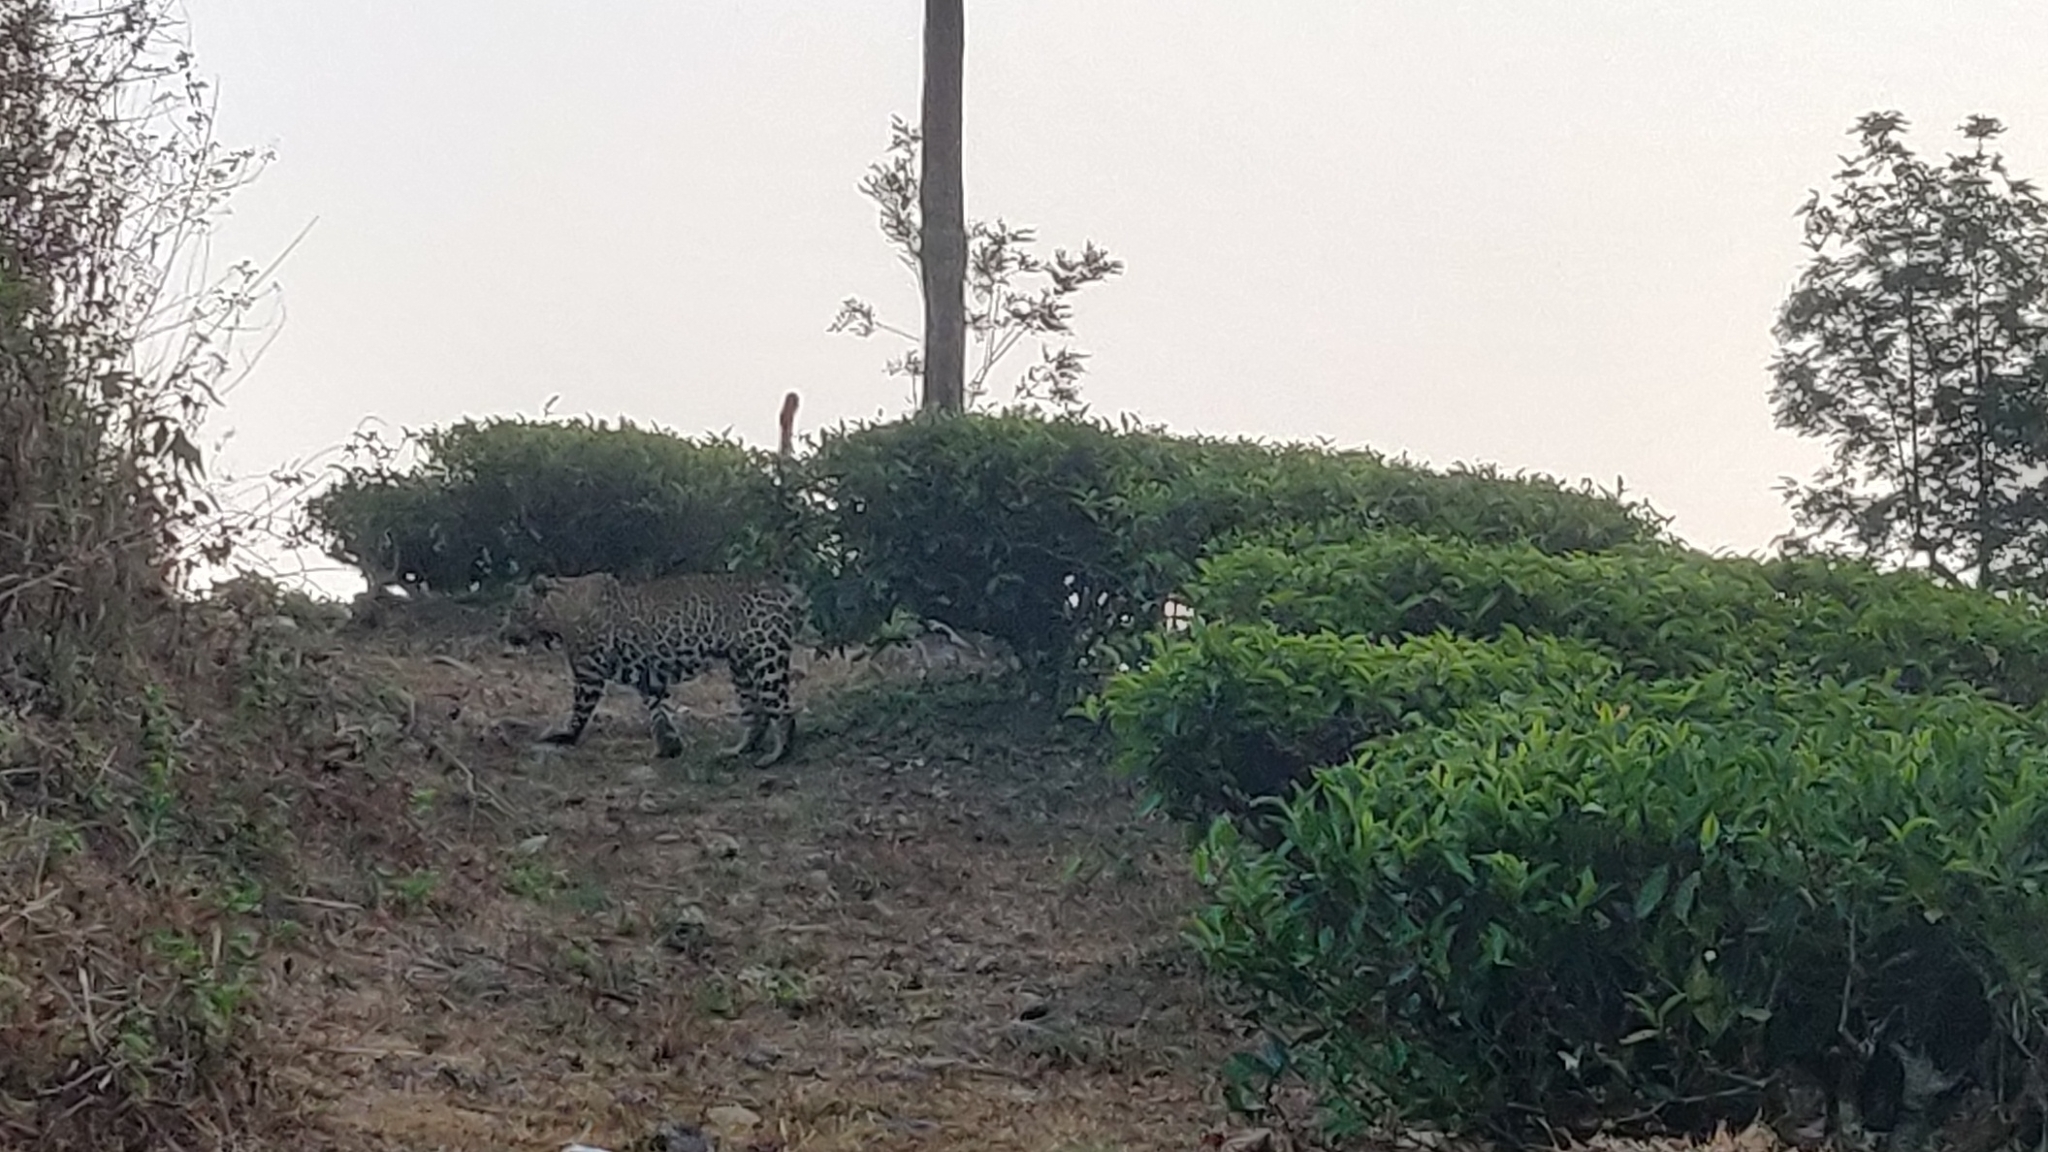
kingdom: Animalia
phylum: Chordata
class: Mammalia
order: Carnivora
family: Felidae
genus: Panthera
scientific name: Panthera pardus
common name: Leopard
